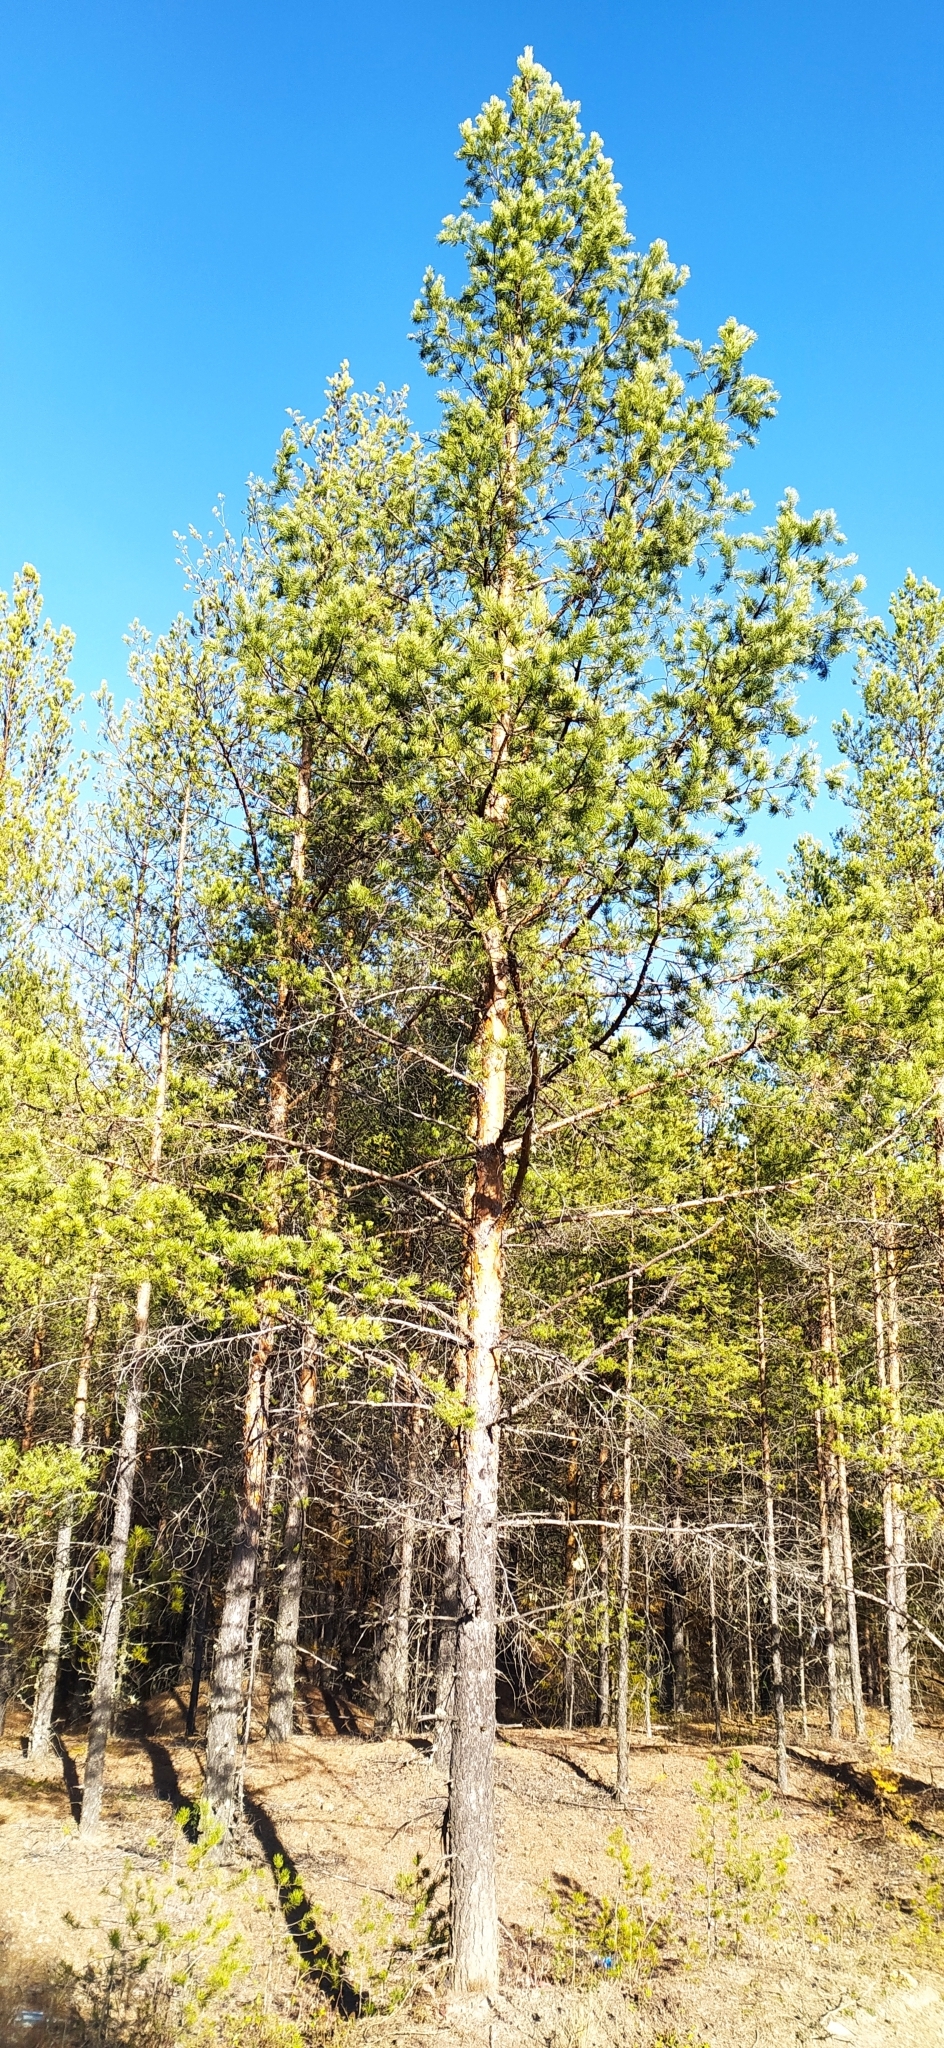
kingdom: Plantae
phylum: Tracheophyta
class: Pinopsida
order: Pinales
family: Pinaceae
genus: Pinus
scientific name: Pinus sylvestris
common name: Scots pine
